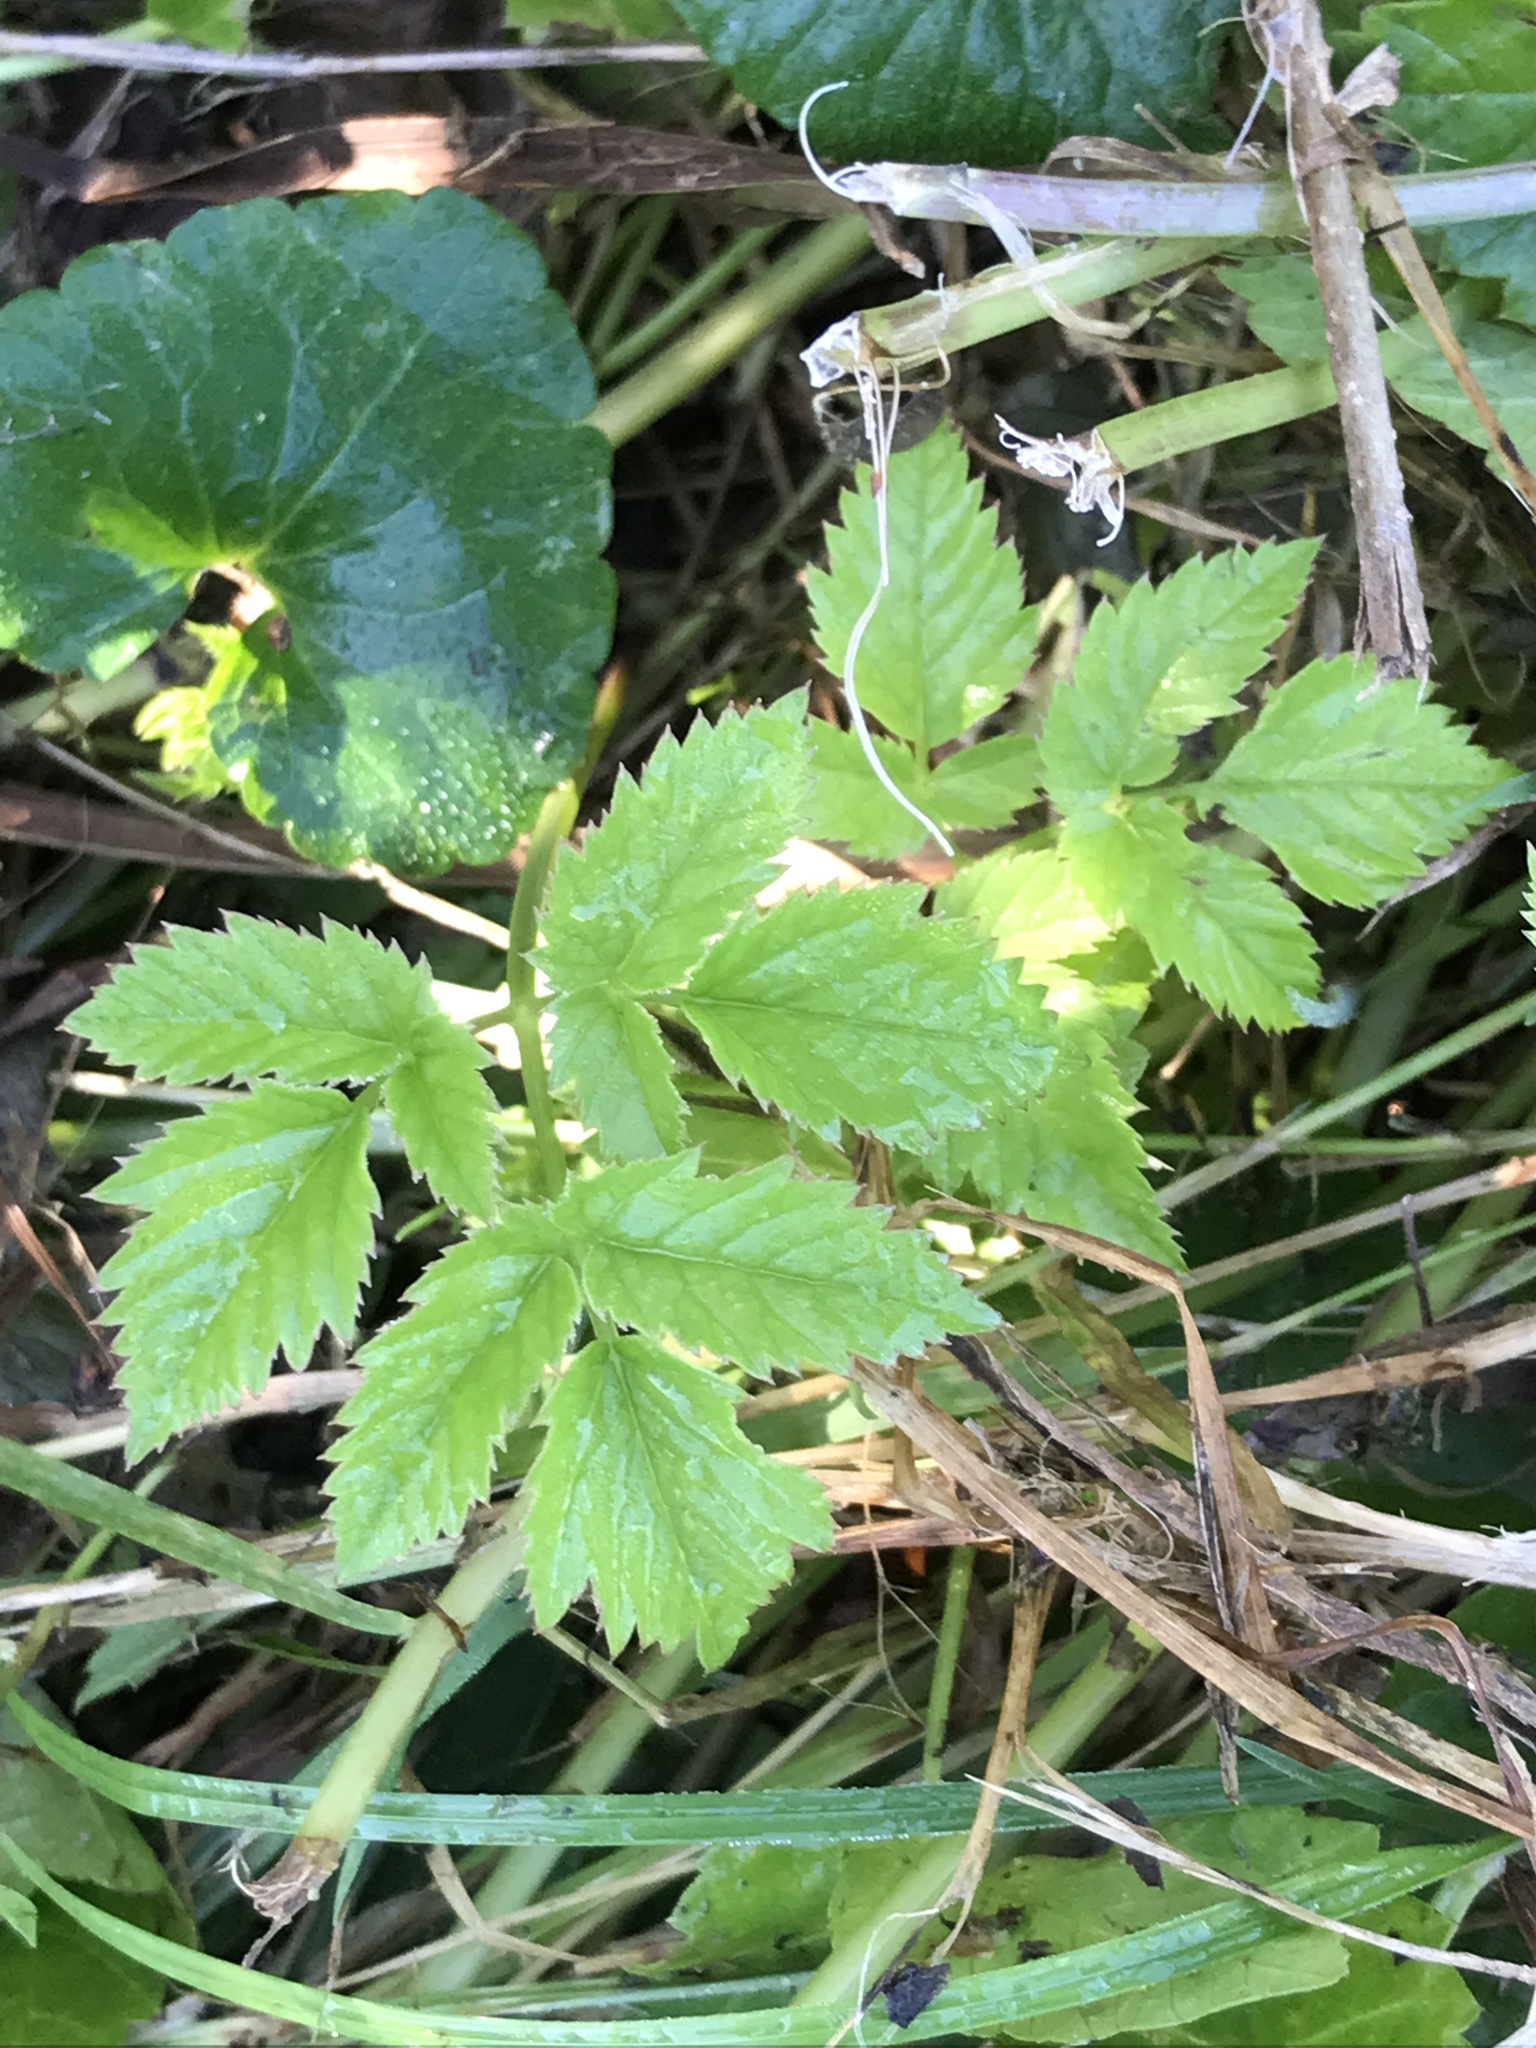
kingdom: Plantae
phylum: Tracheophyta
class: Magnoliopsida
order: Apiales
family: Apiaceae
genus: Aegopodium
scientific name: Aegopodium podagraria
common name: Ground-elder
